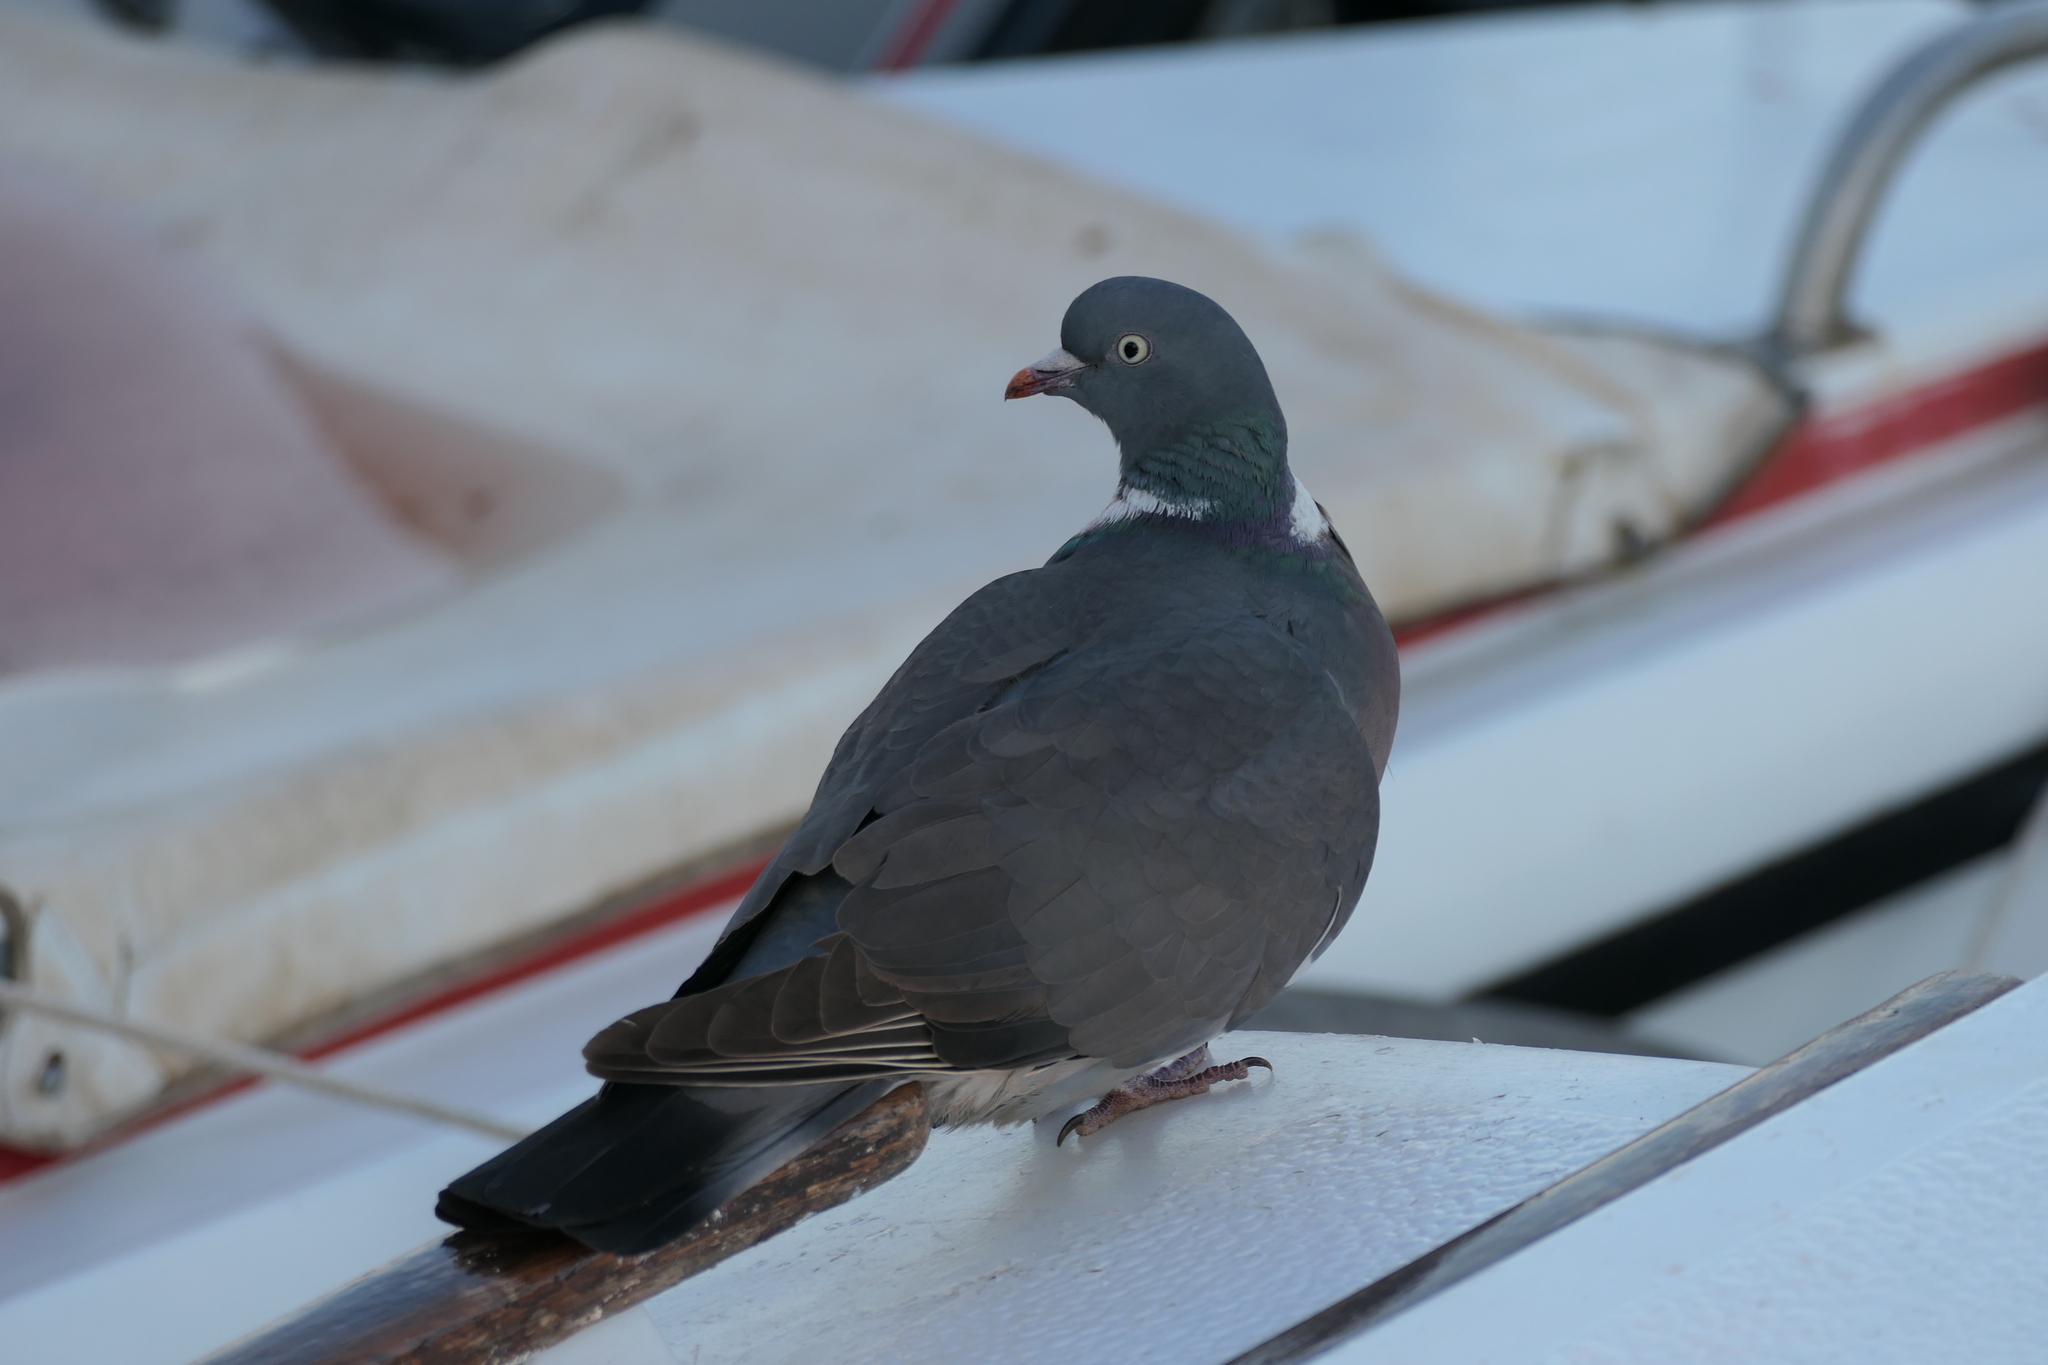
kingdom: Animalia
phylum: Chordata
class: Aves
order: Columbiformes
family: Columbidae
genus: Columba
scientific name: Columba palumbus
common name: Common wood pigeon
